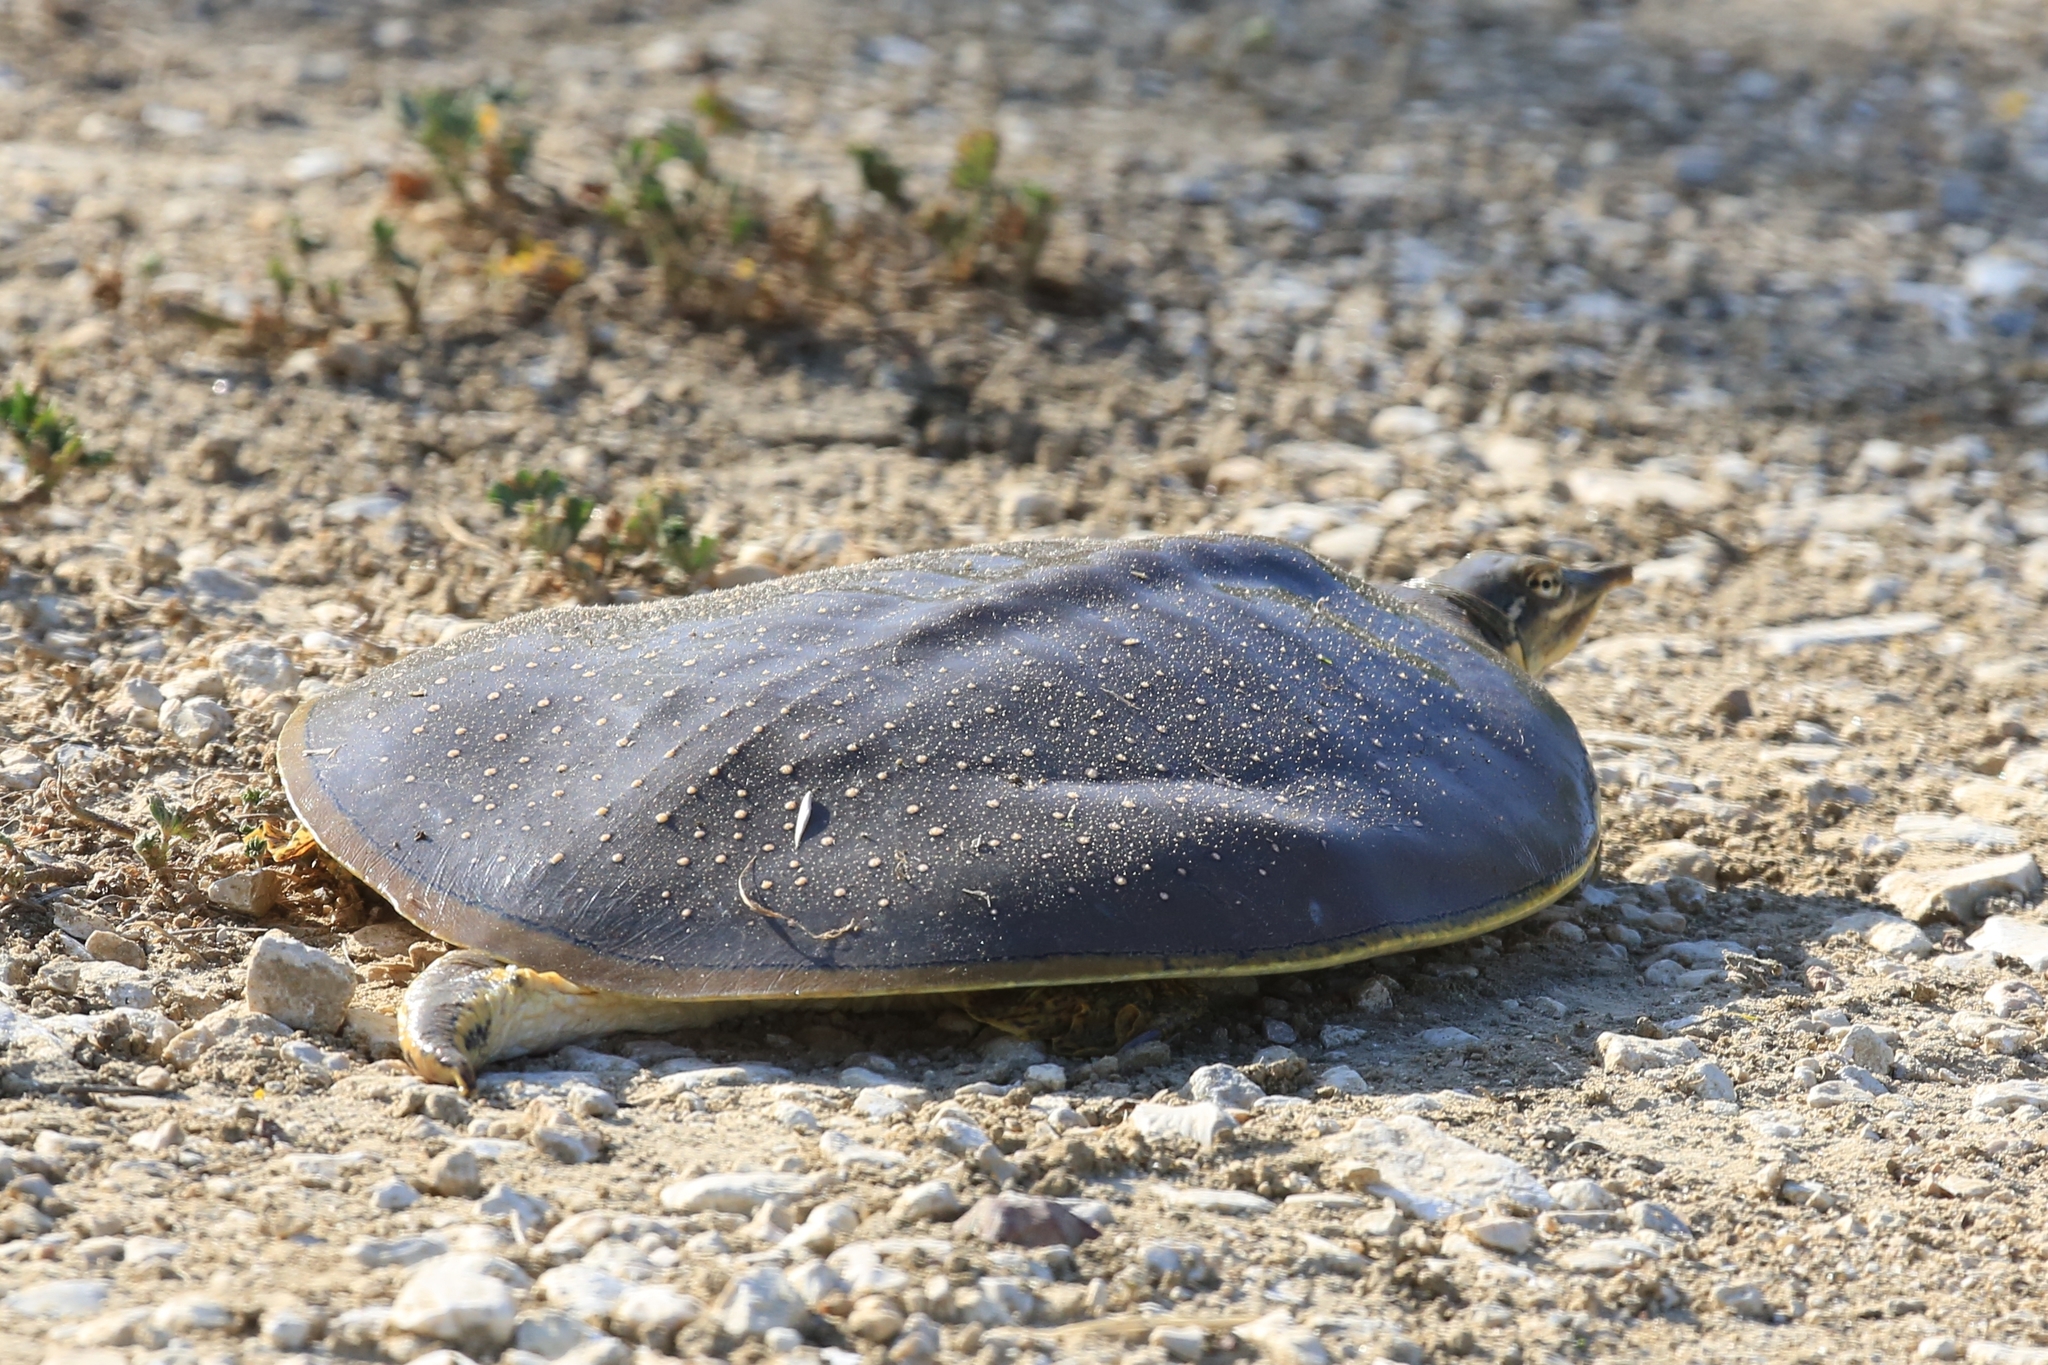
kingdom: Animalia
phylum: Chordata
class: Testudines
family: Trionychidae
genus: Apalone
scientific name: Apalone spinifera
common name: Spiny softshell turtle
